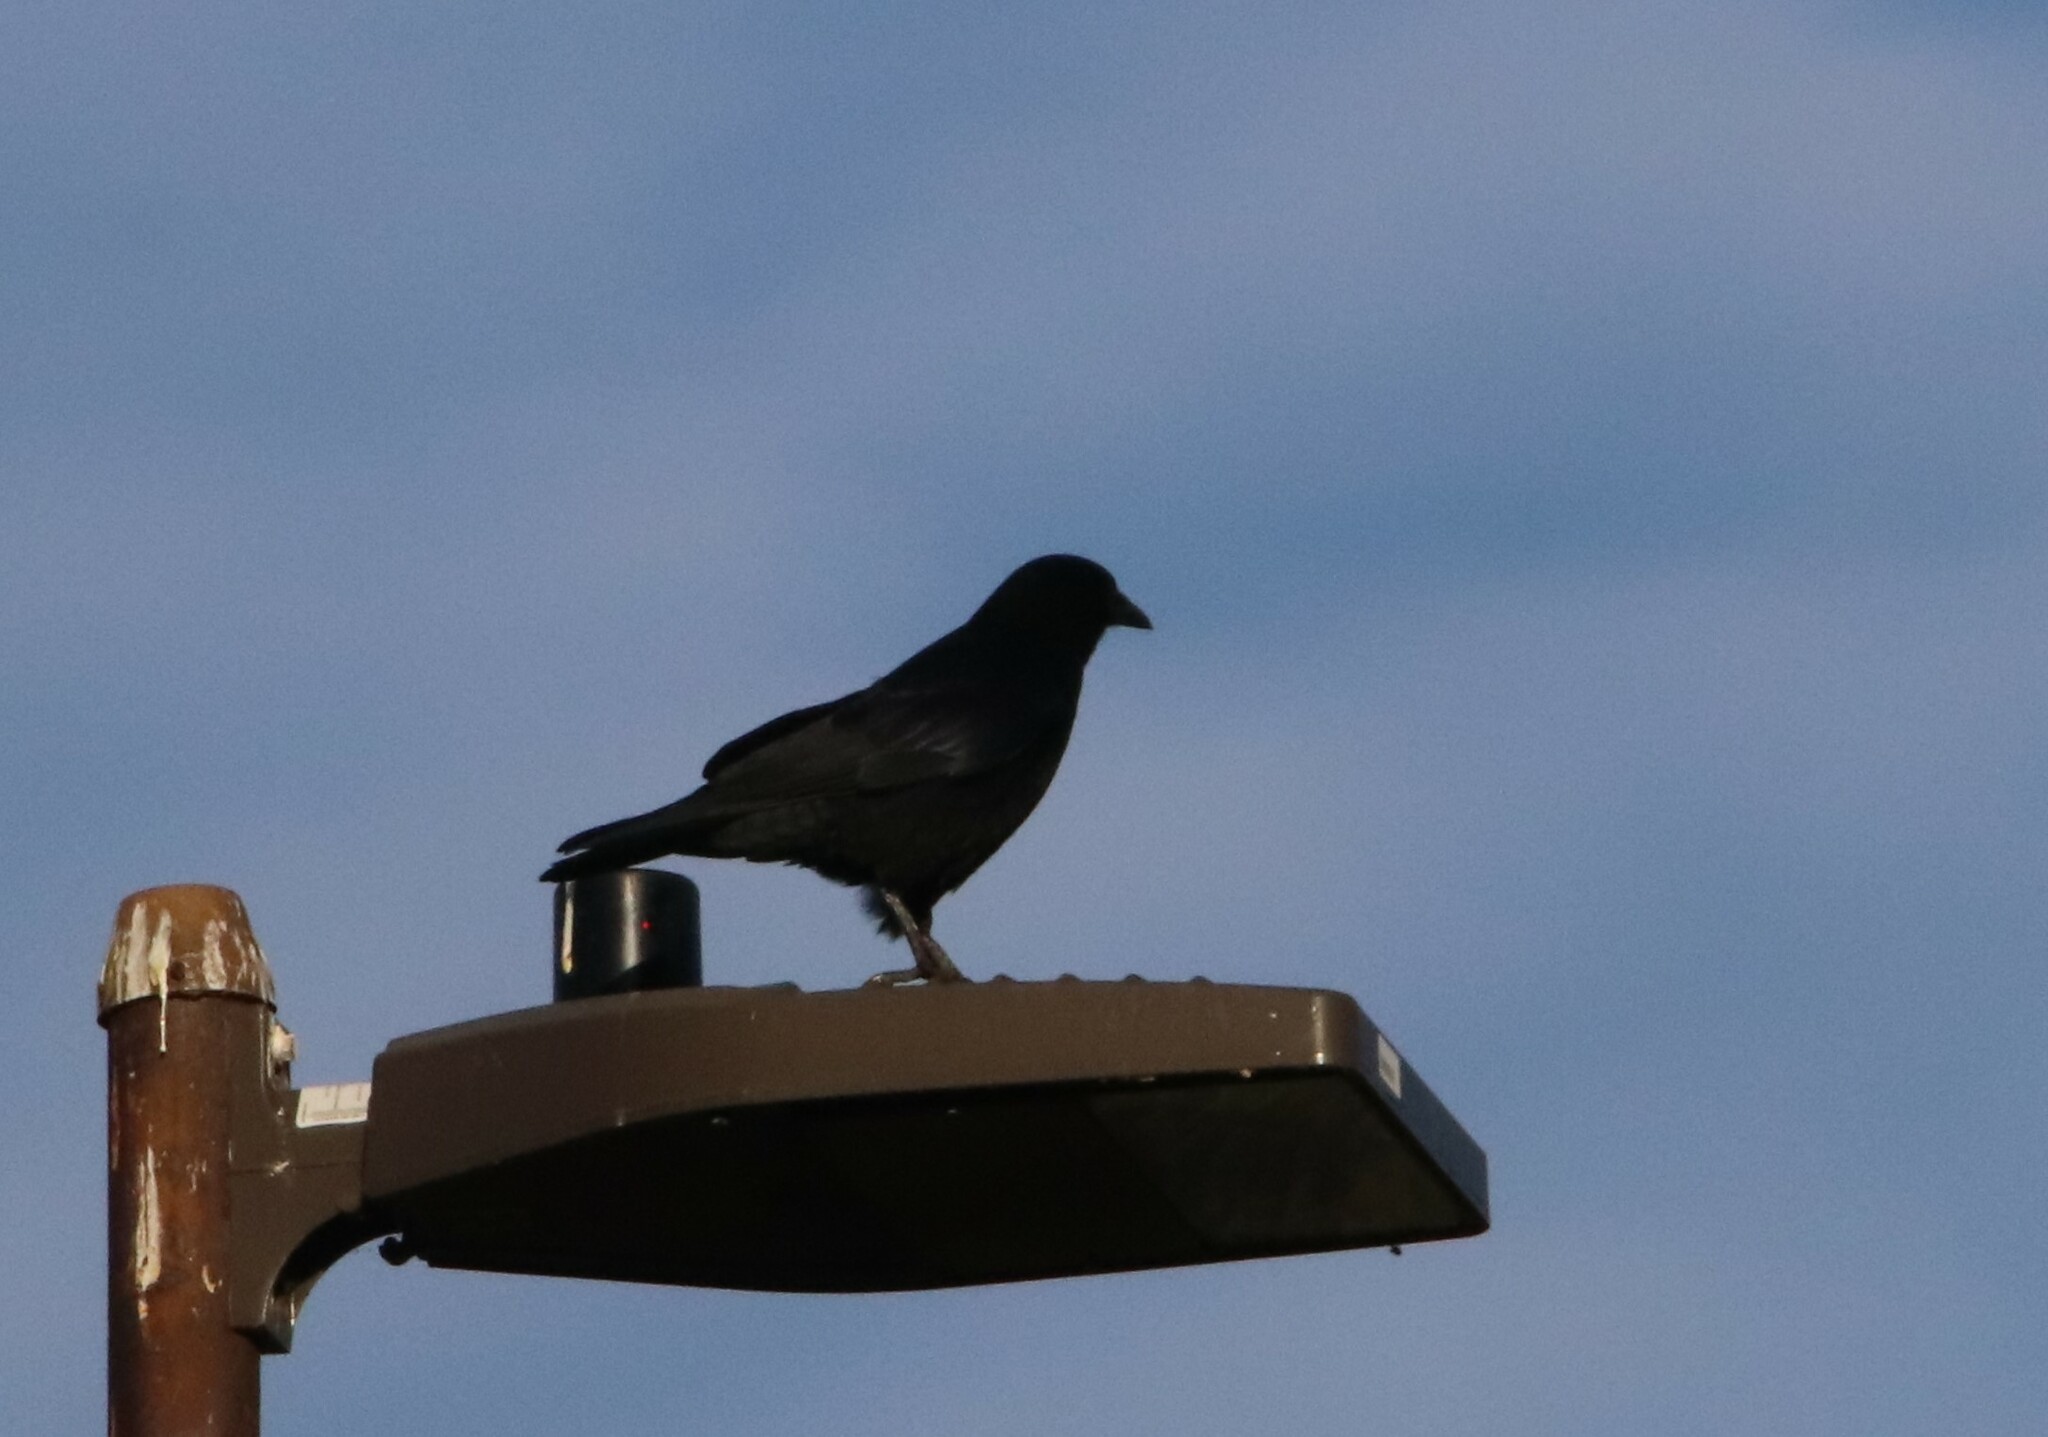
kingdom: Animalia
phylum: Chordata
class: Aves
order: Passeriformes
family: Corvidae
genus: Corvus
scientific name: Corvus brachyrhynchos
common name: American crow
